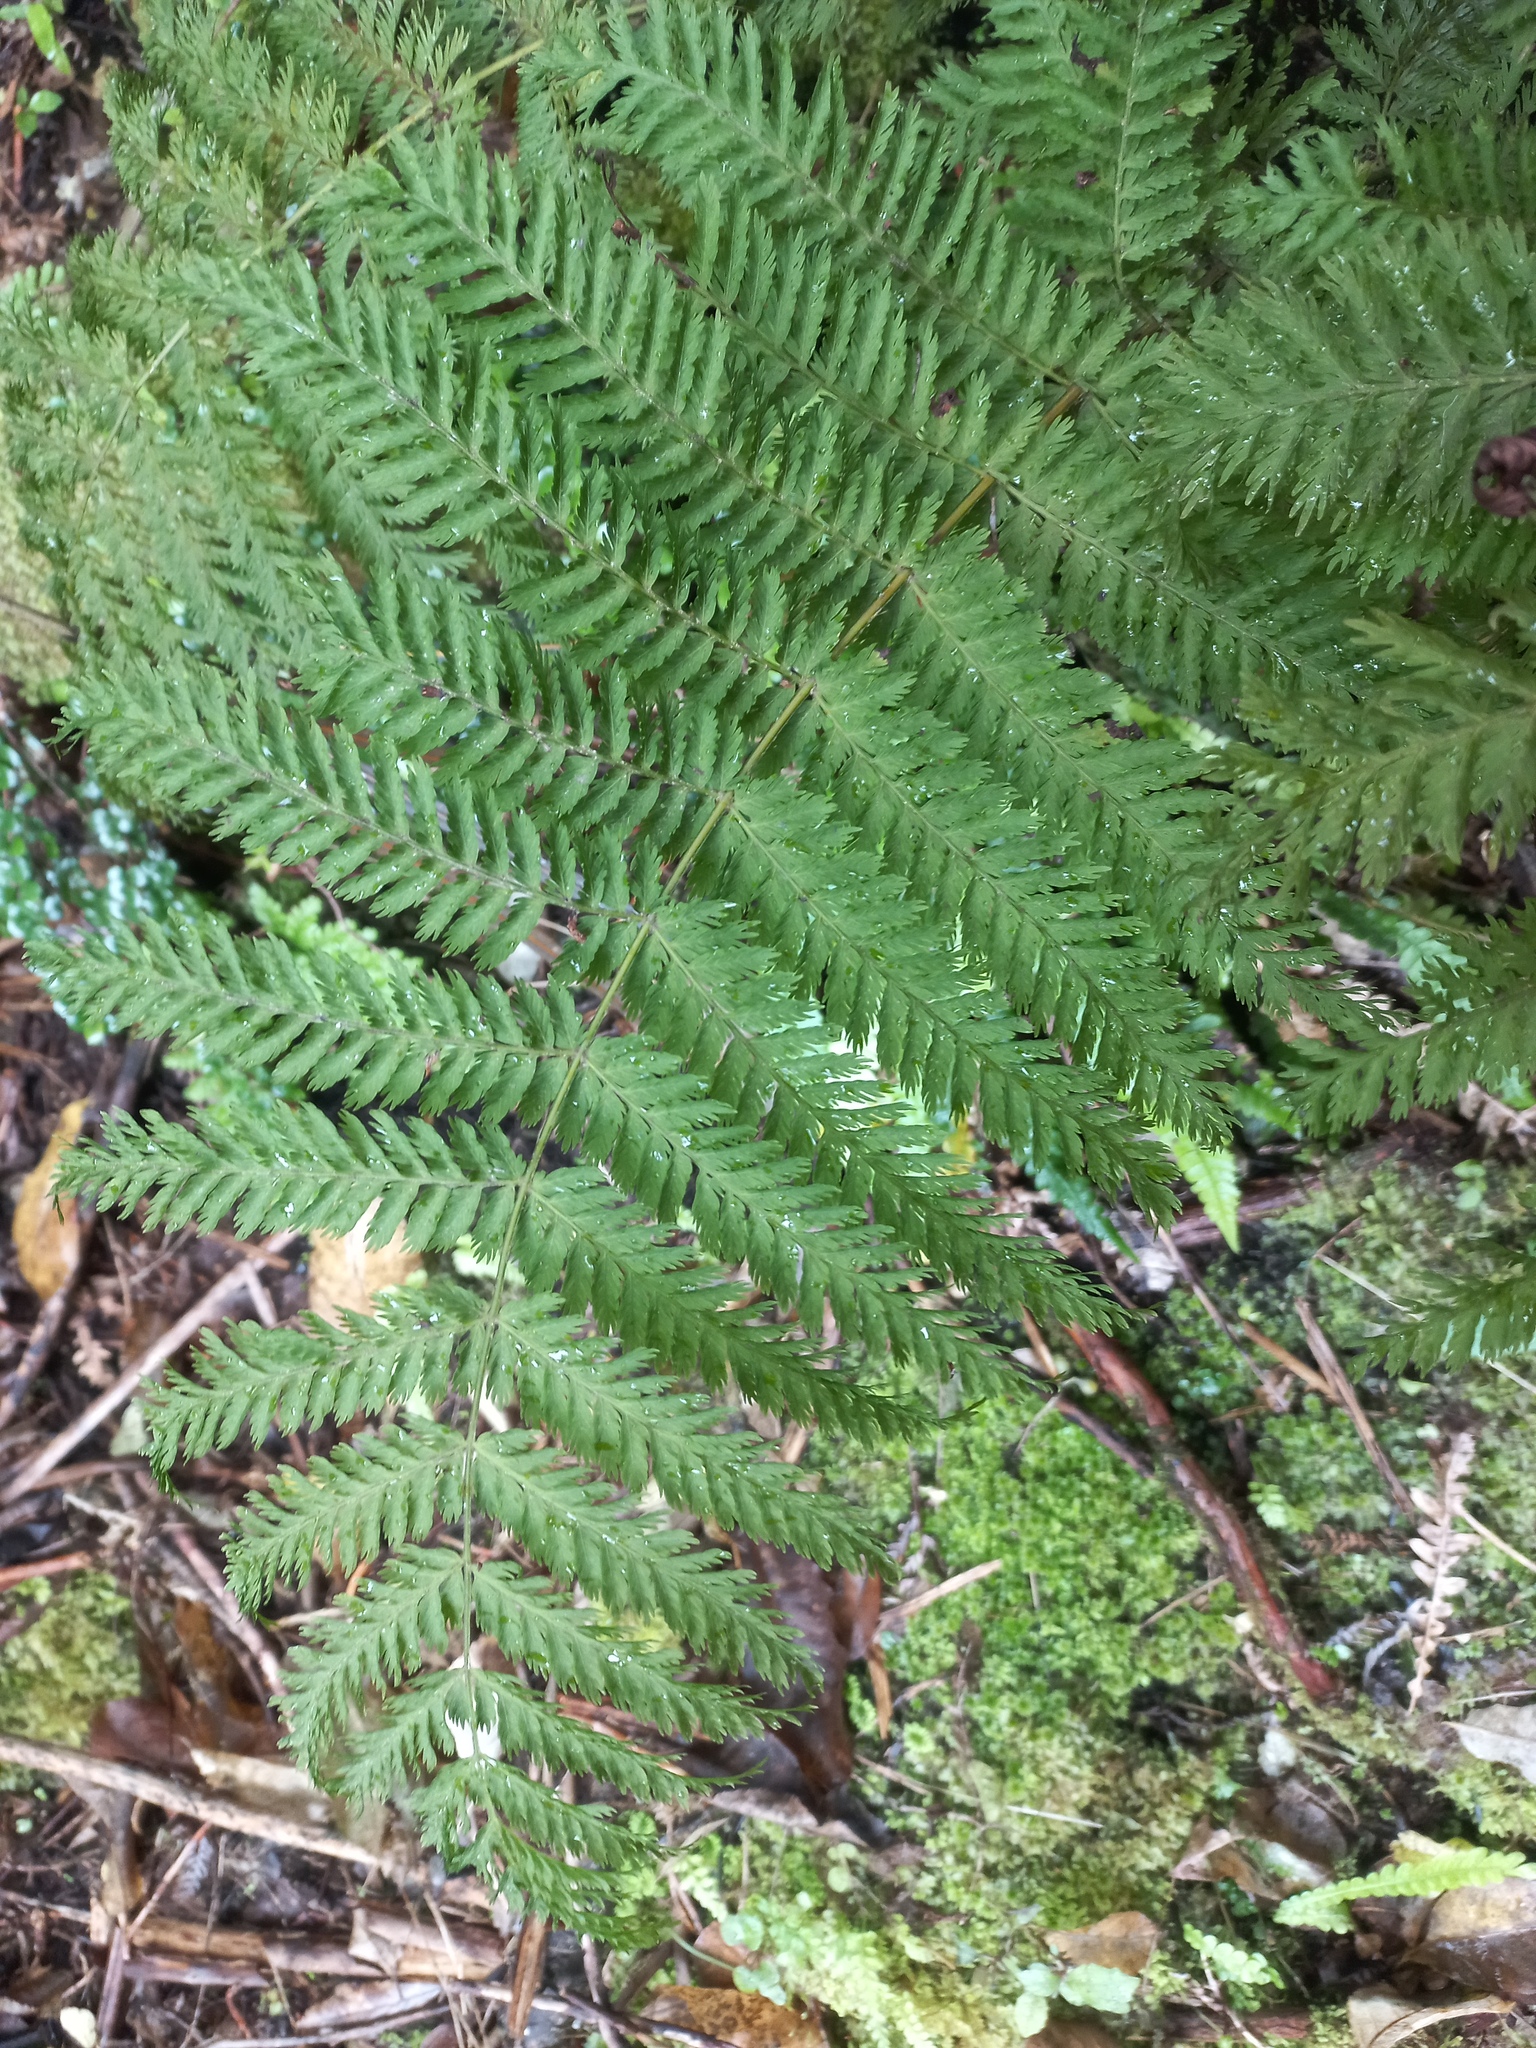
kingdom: Plantae
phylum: Tracheophyta
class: Polypodiopsida
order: Osmundales
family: Osmundaceae
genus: Leptopteris
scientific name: Leptopteris hymenophylloides
